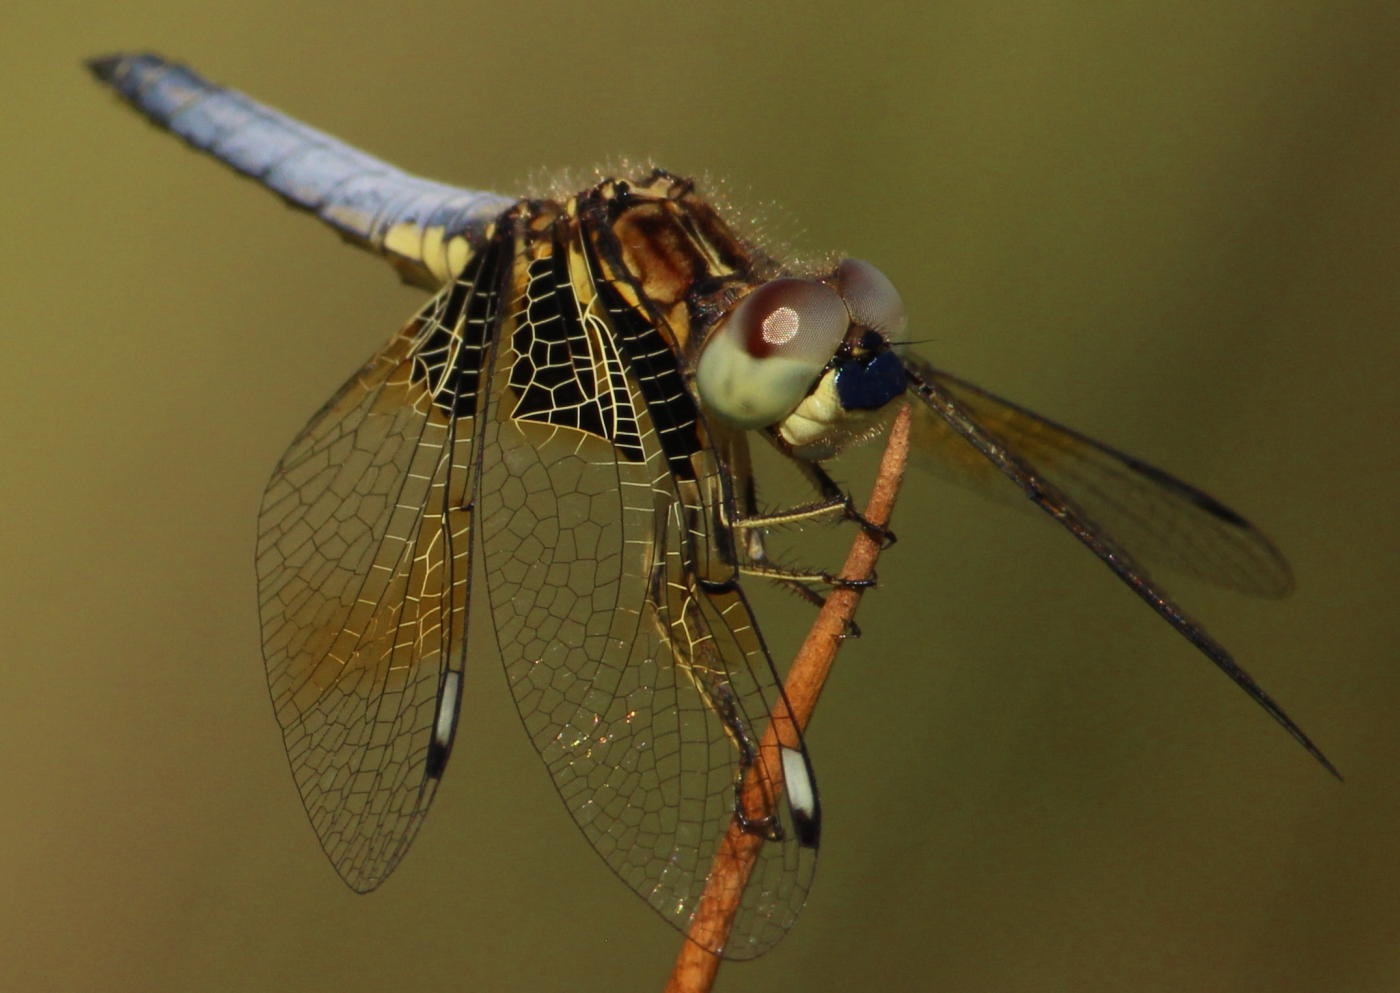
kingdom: Animalia
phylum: Arthropoda
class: Insecta
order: Odonata
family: Libellulidae
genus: Palpopleura
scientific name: Palpopleura jucunda
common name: Yellow-veined widow
